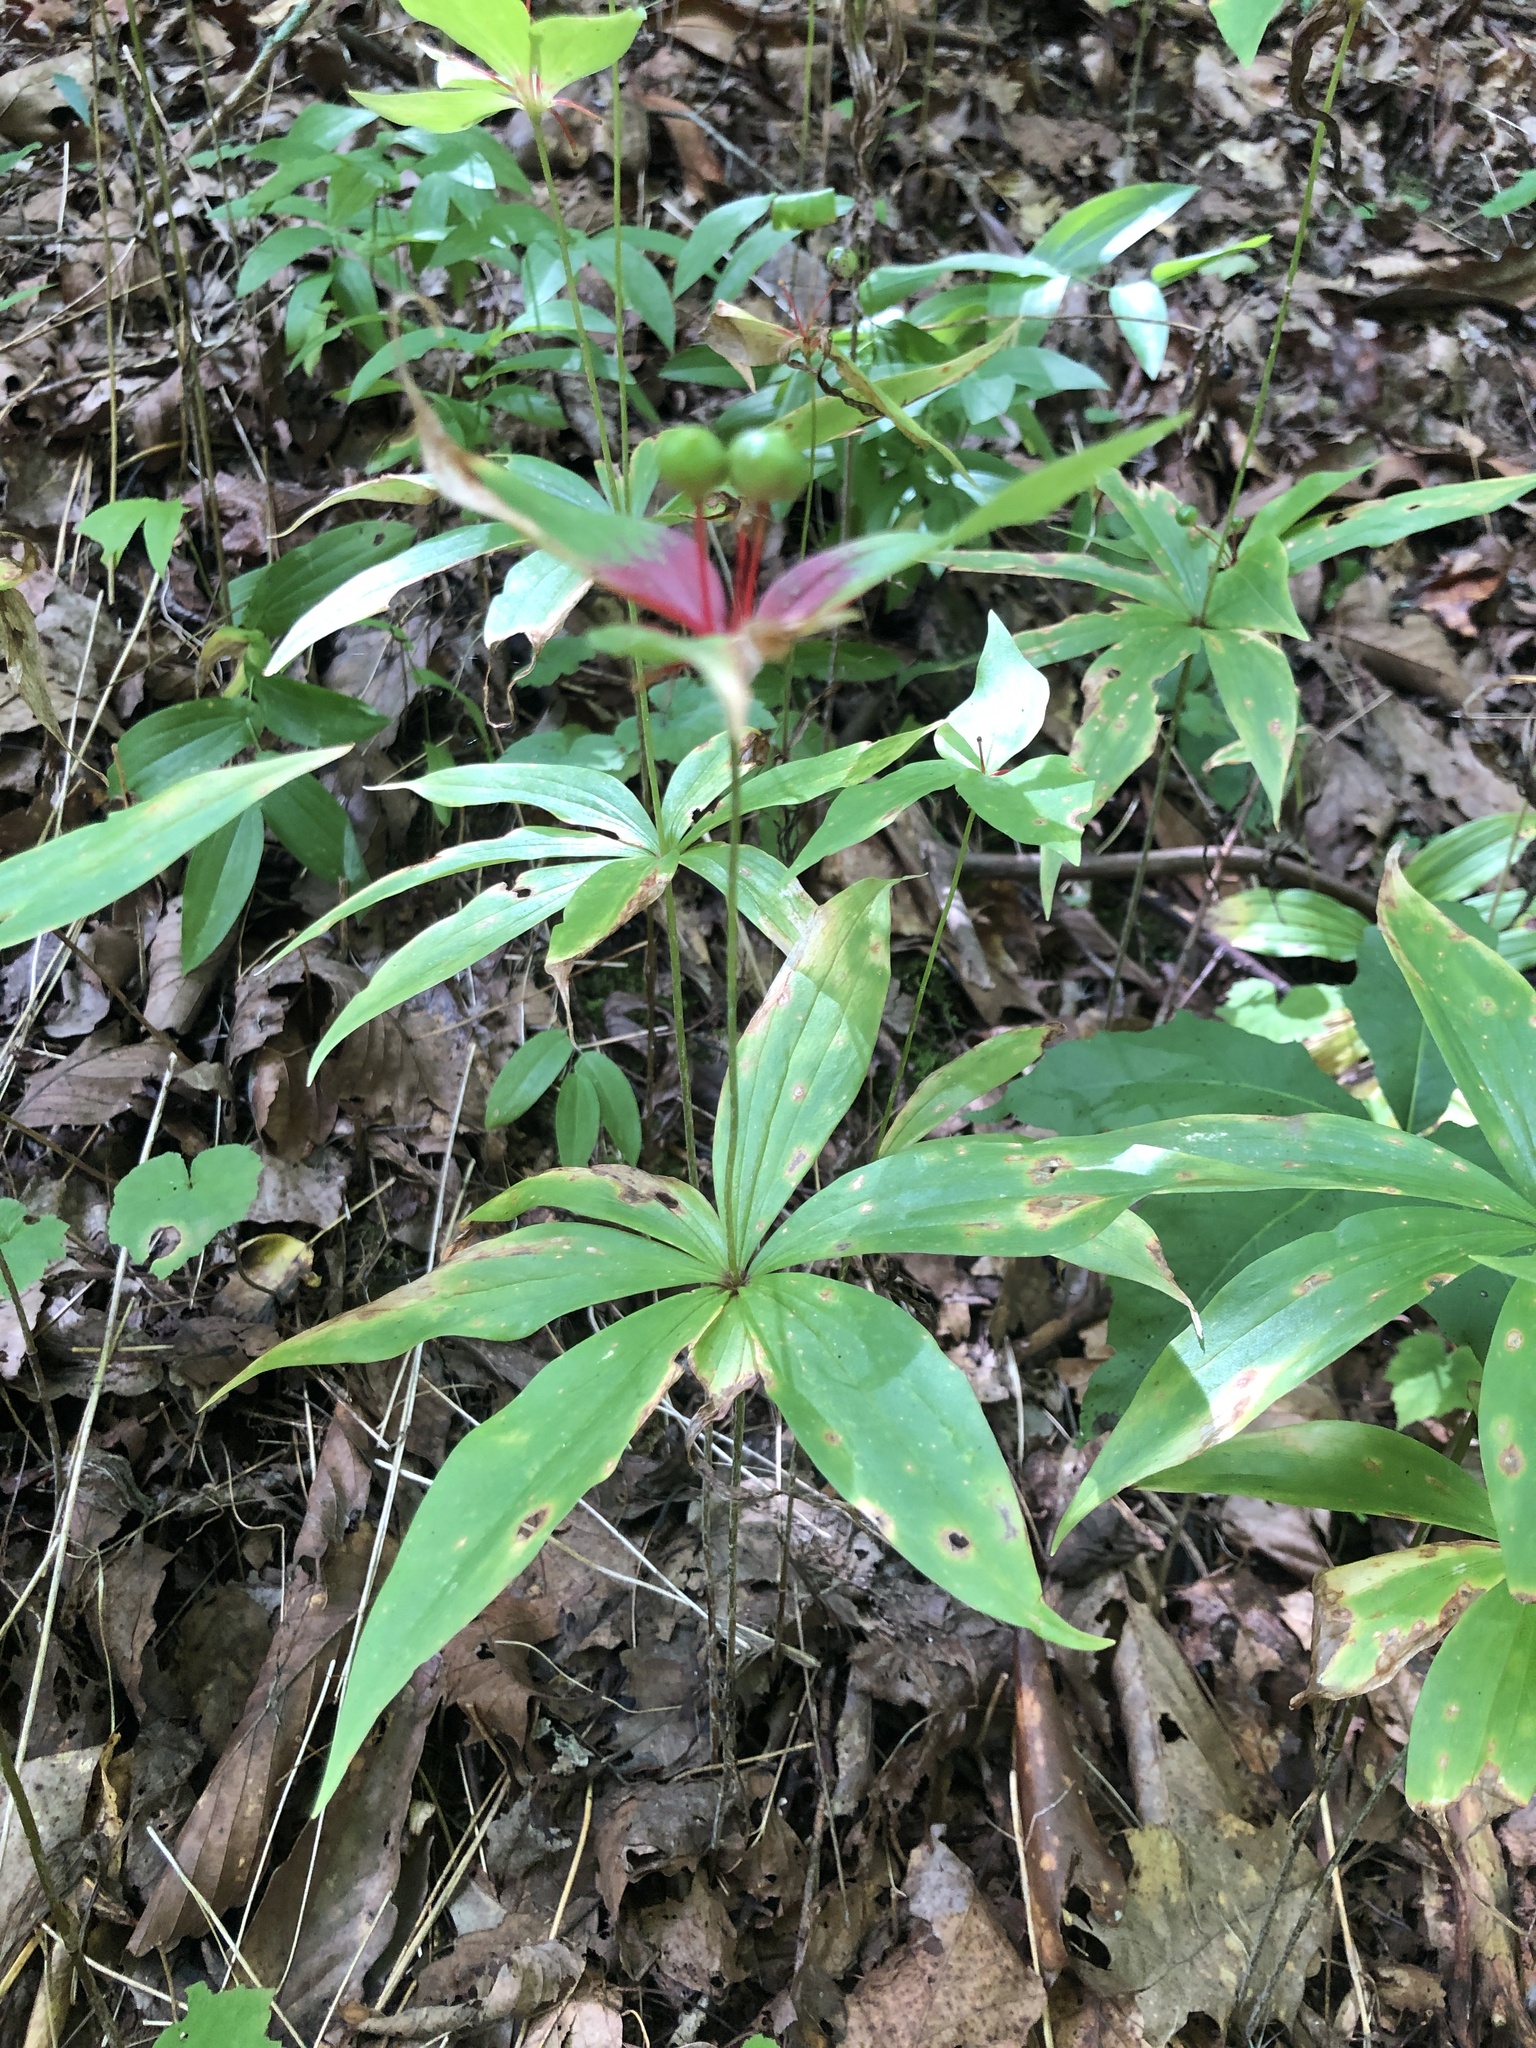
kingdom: Plantae
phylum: Tracheophyta
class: Liliopsida
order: Liliales
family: Liliaceae
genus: Medeola
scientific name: Medeola virginiana
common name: Indian cucumber-root
